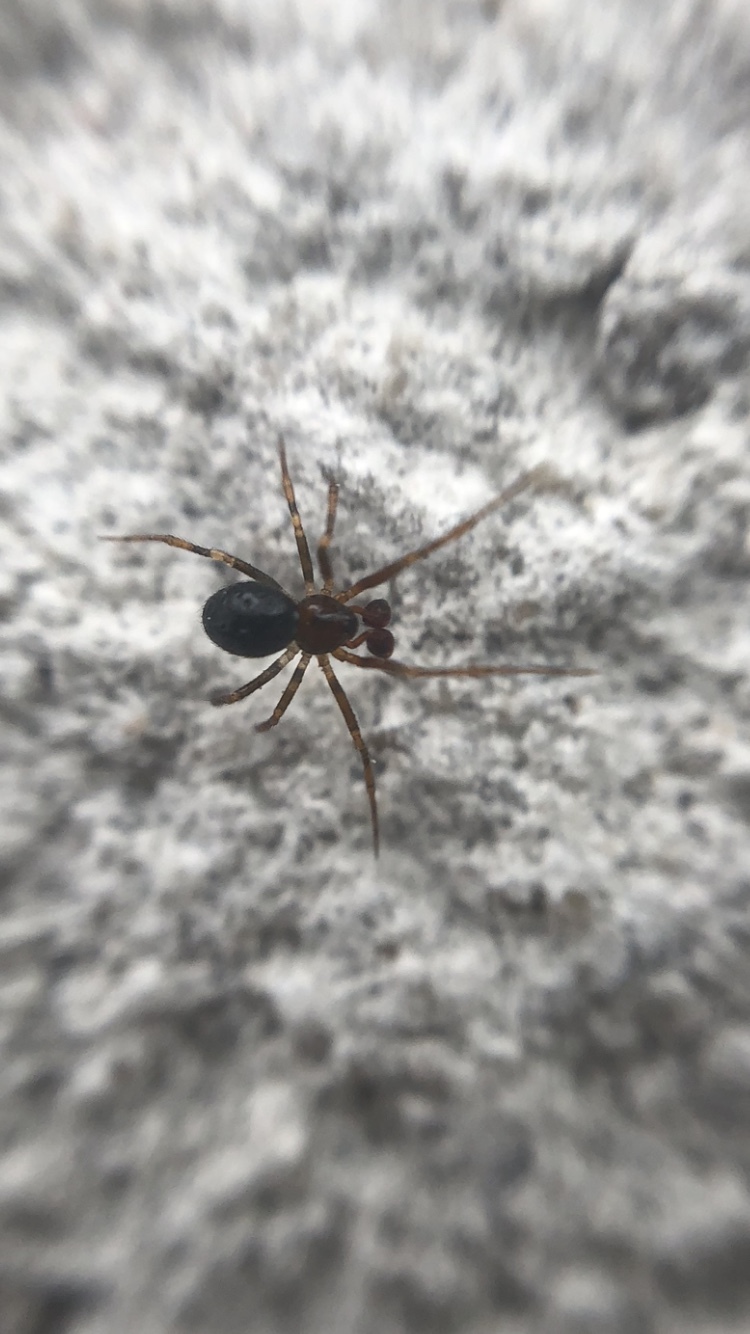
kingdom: Animalia
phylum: Arthropoda
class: Arachnida
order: Araneae
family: Theridiidae
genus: Sardinidion
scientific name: Sardinidion blackwalli
